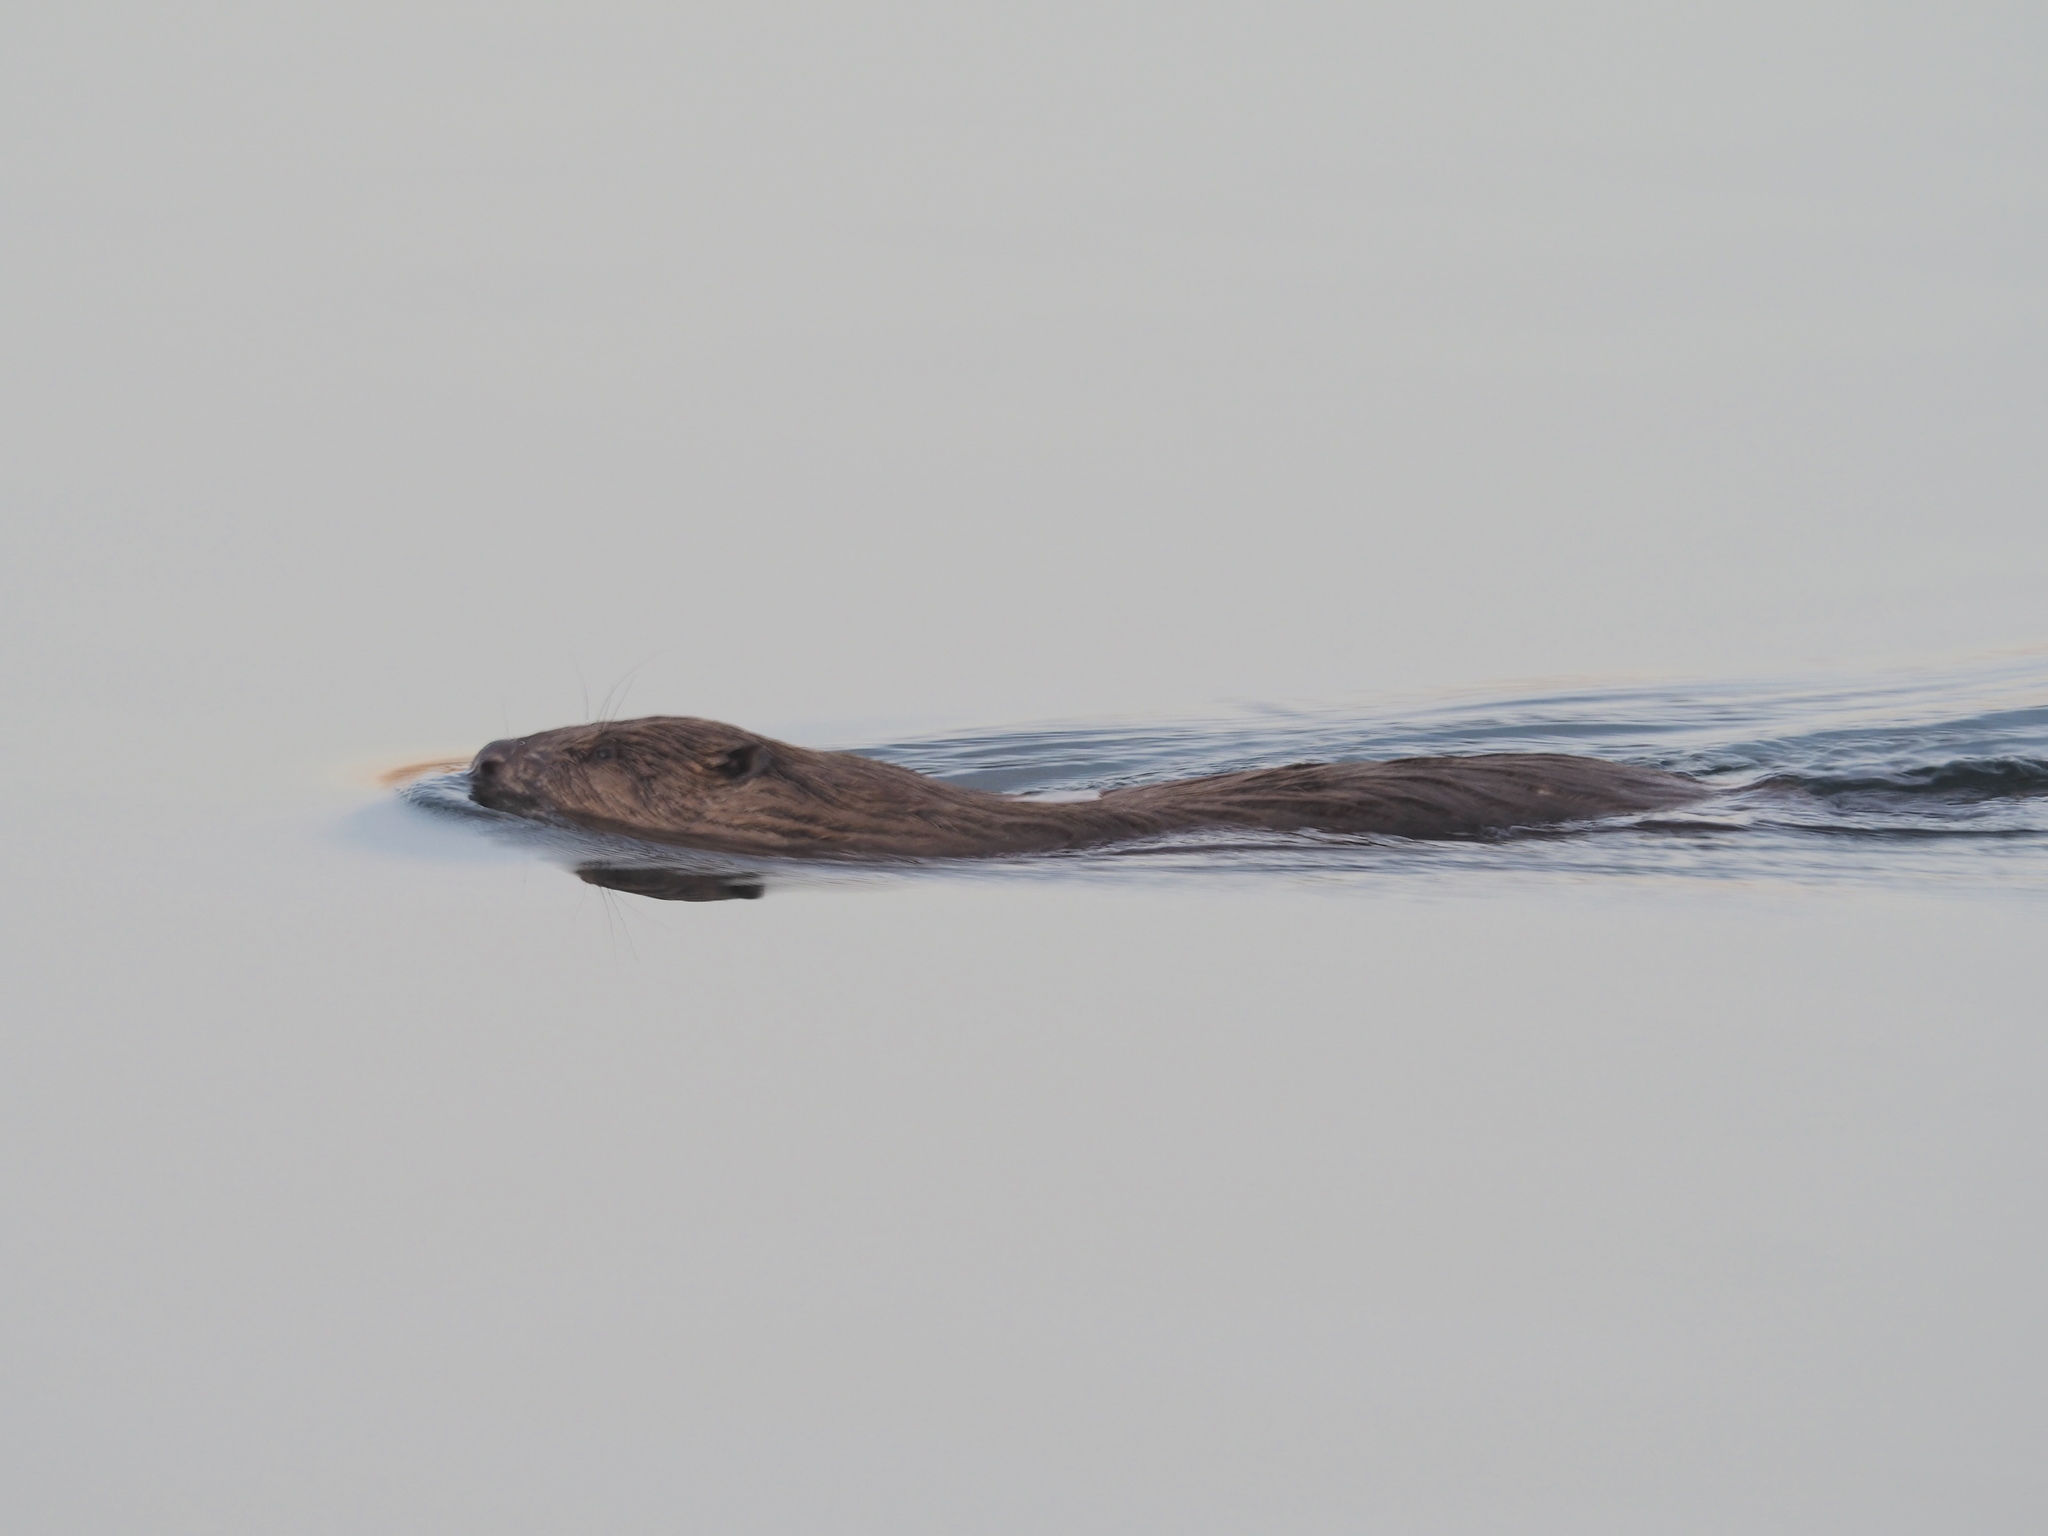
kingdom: Animalia
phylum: Chordata
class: Mammalia
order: Rodentia
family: Castoridae
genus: Castor
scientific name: Castor fiber
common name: Eurasian beaver
